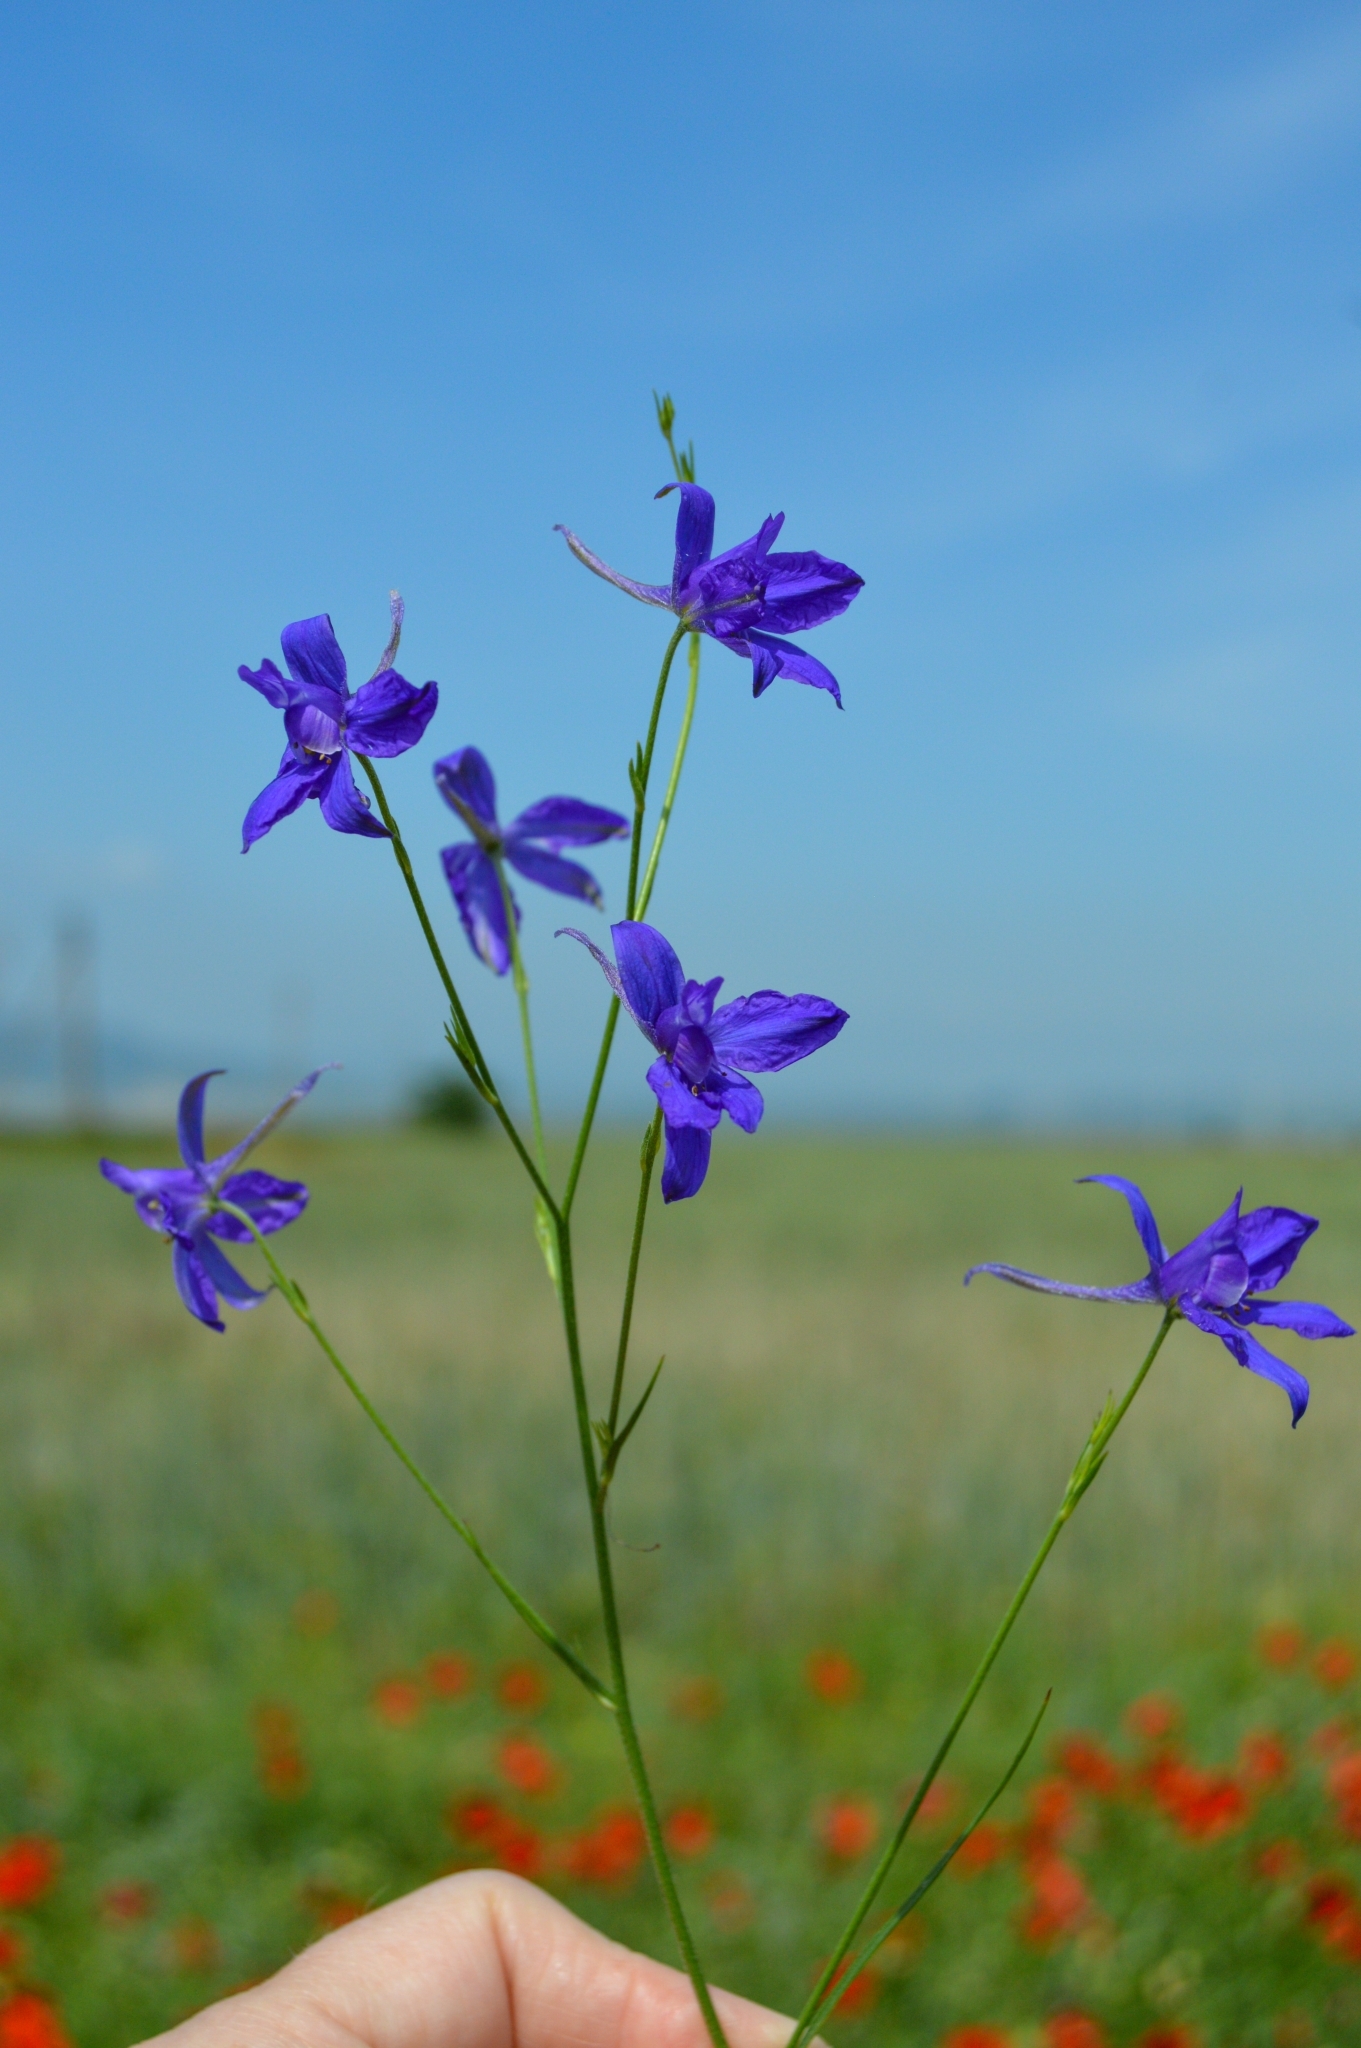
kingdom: Plantae
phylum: Tracheophyta
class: Magnoliopsida
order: Ranunculales
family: Ranunculaceae
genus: Delphinium
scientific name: Delphinium consolida
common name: Branching larkspur
